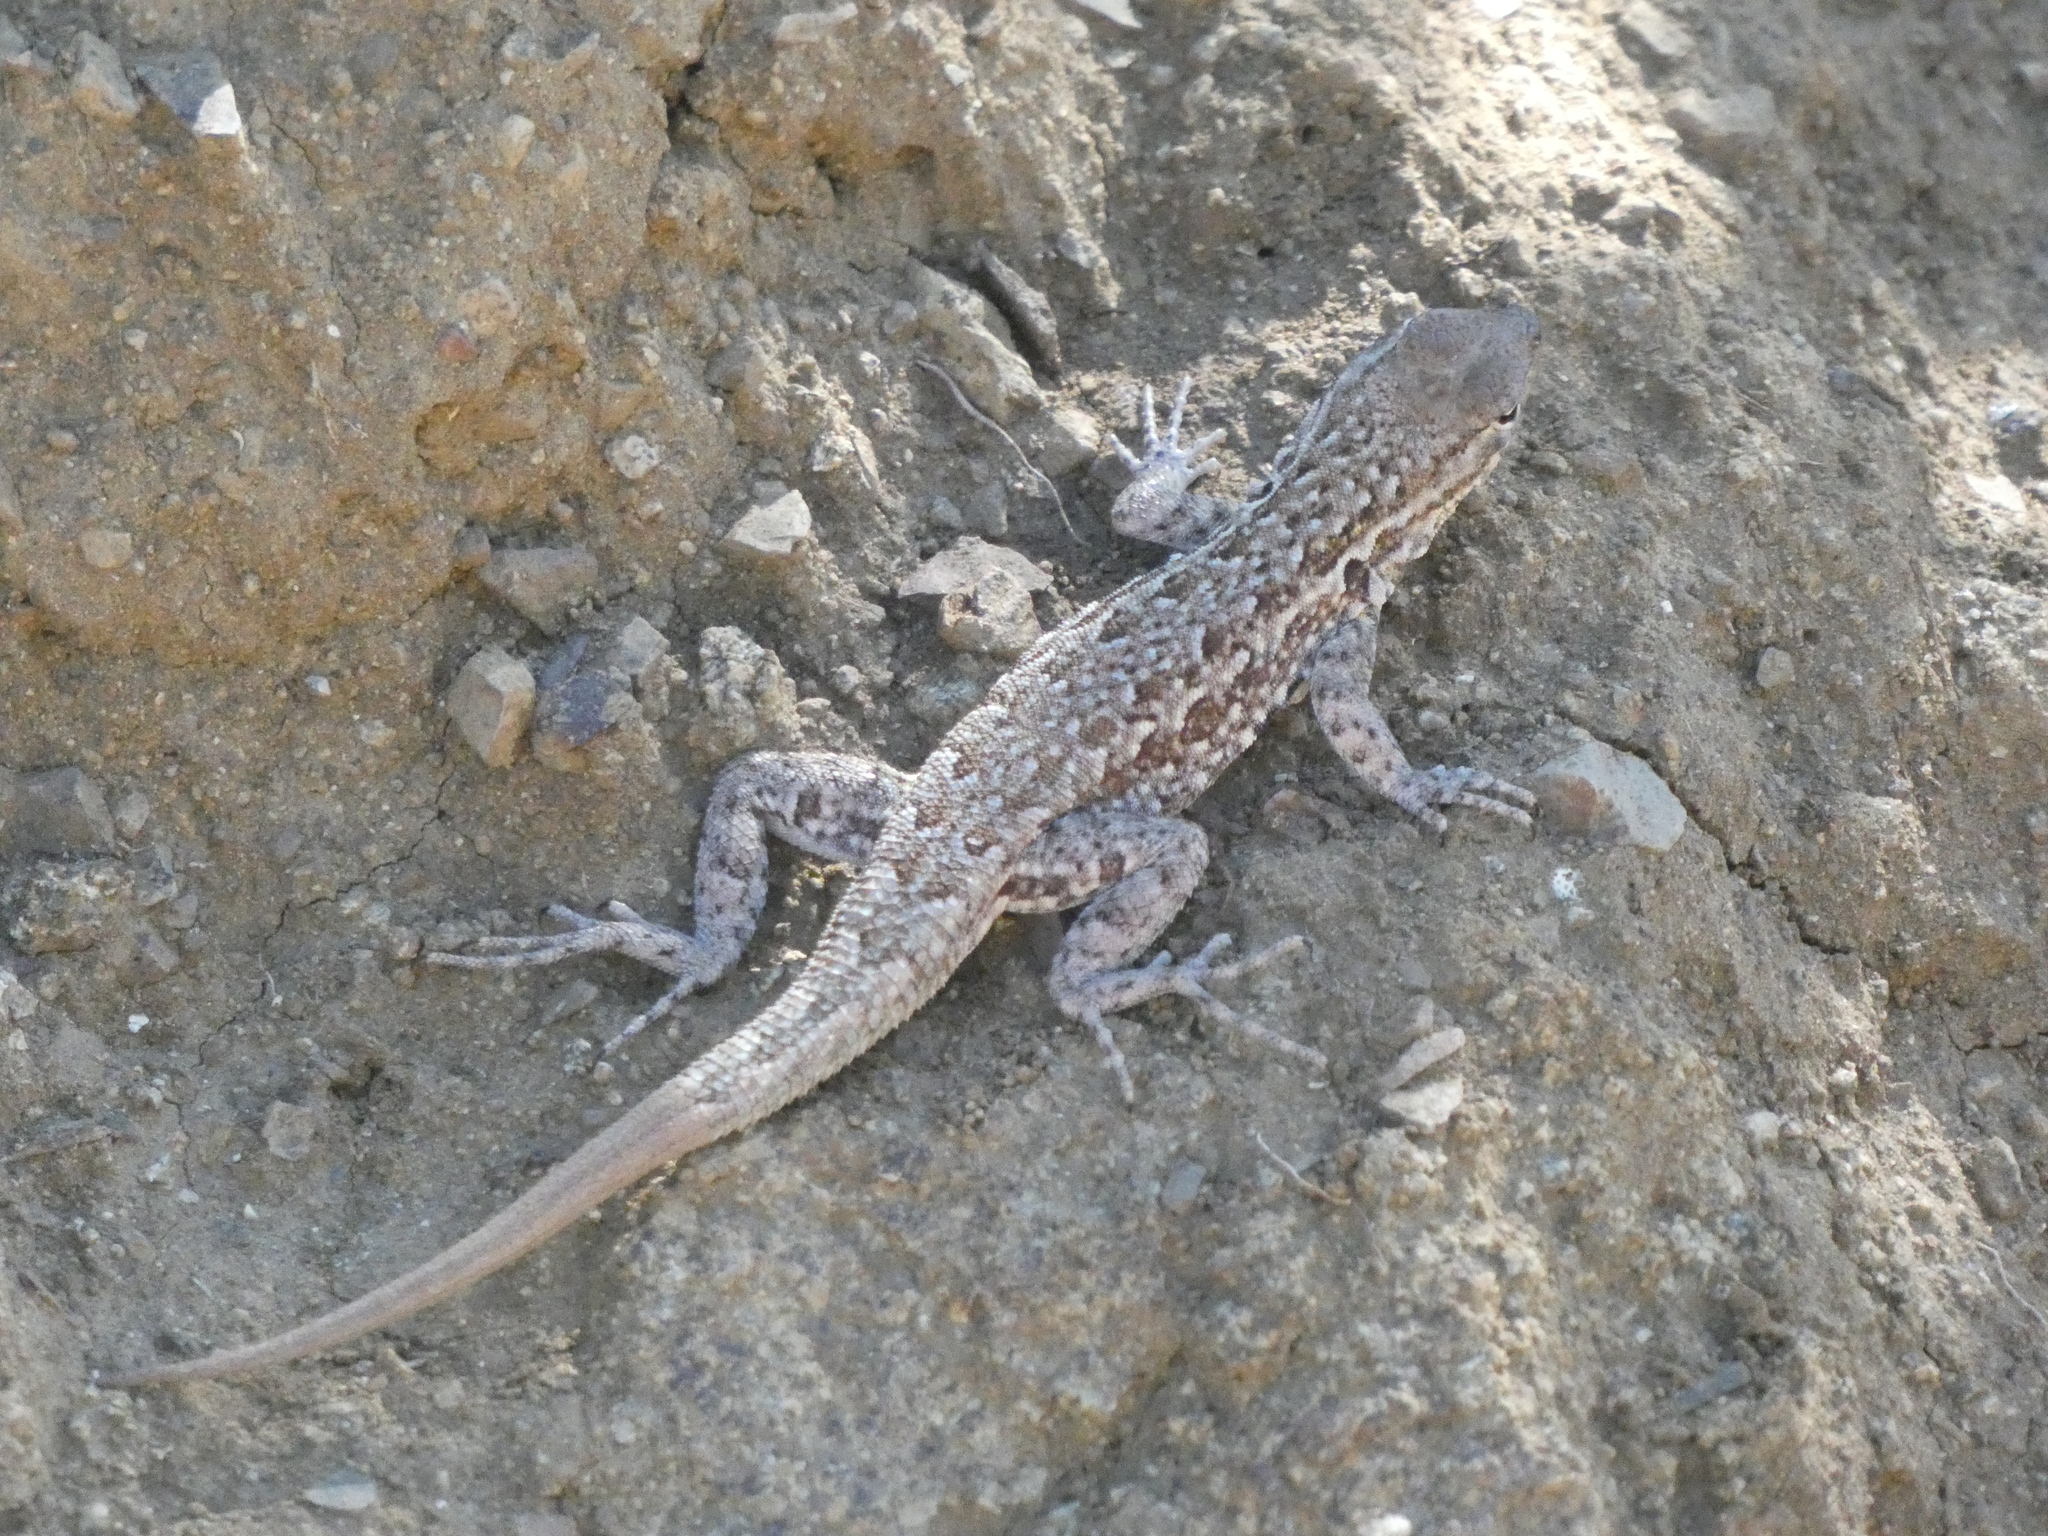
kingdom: Animalia
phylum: Chordata
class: Squamata
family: Phrynosomatidae
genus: Uta
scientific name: Uta stansburiana
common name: Side-blotched lizard
